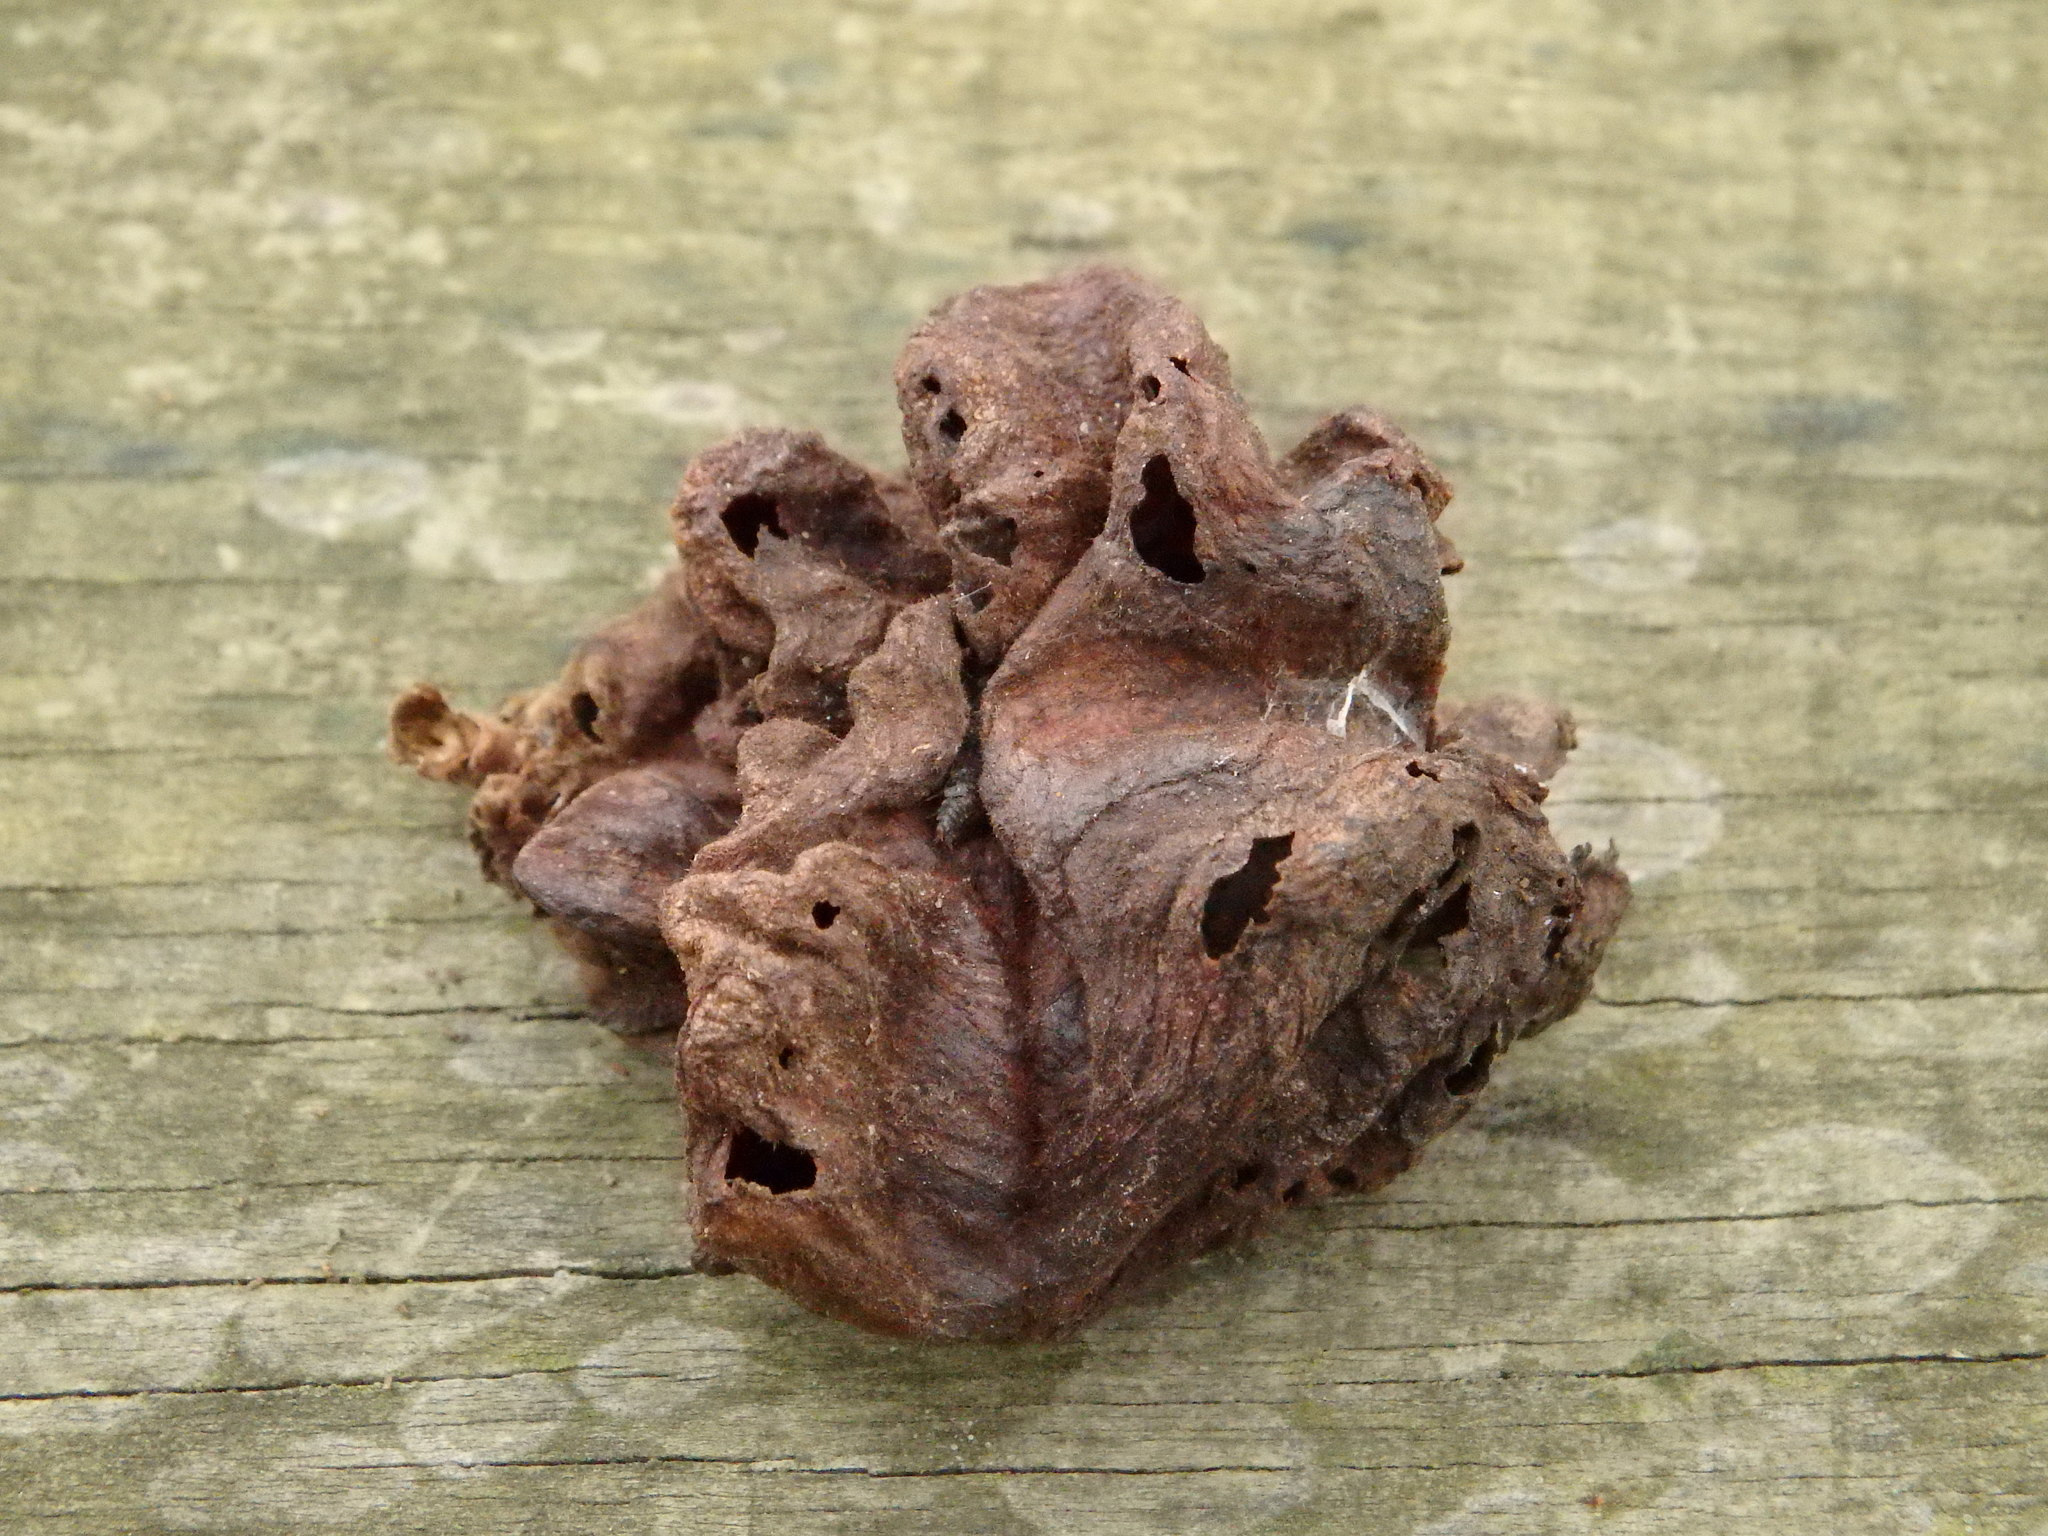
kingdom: Animalia
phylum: Arthropoda
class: Insecta
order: Hemiptera
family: Aphididae
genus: Eriosoma
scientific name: Eriosoma lanuginosum
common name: Aphid
